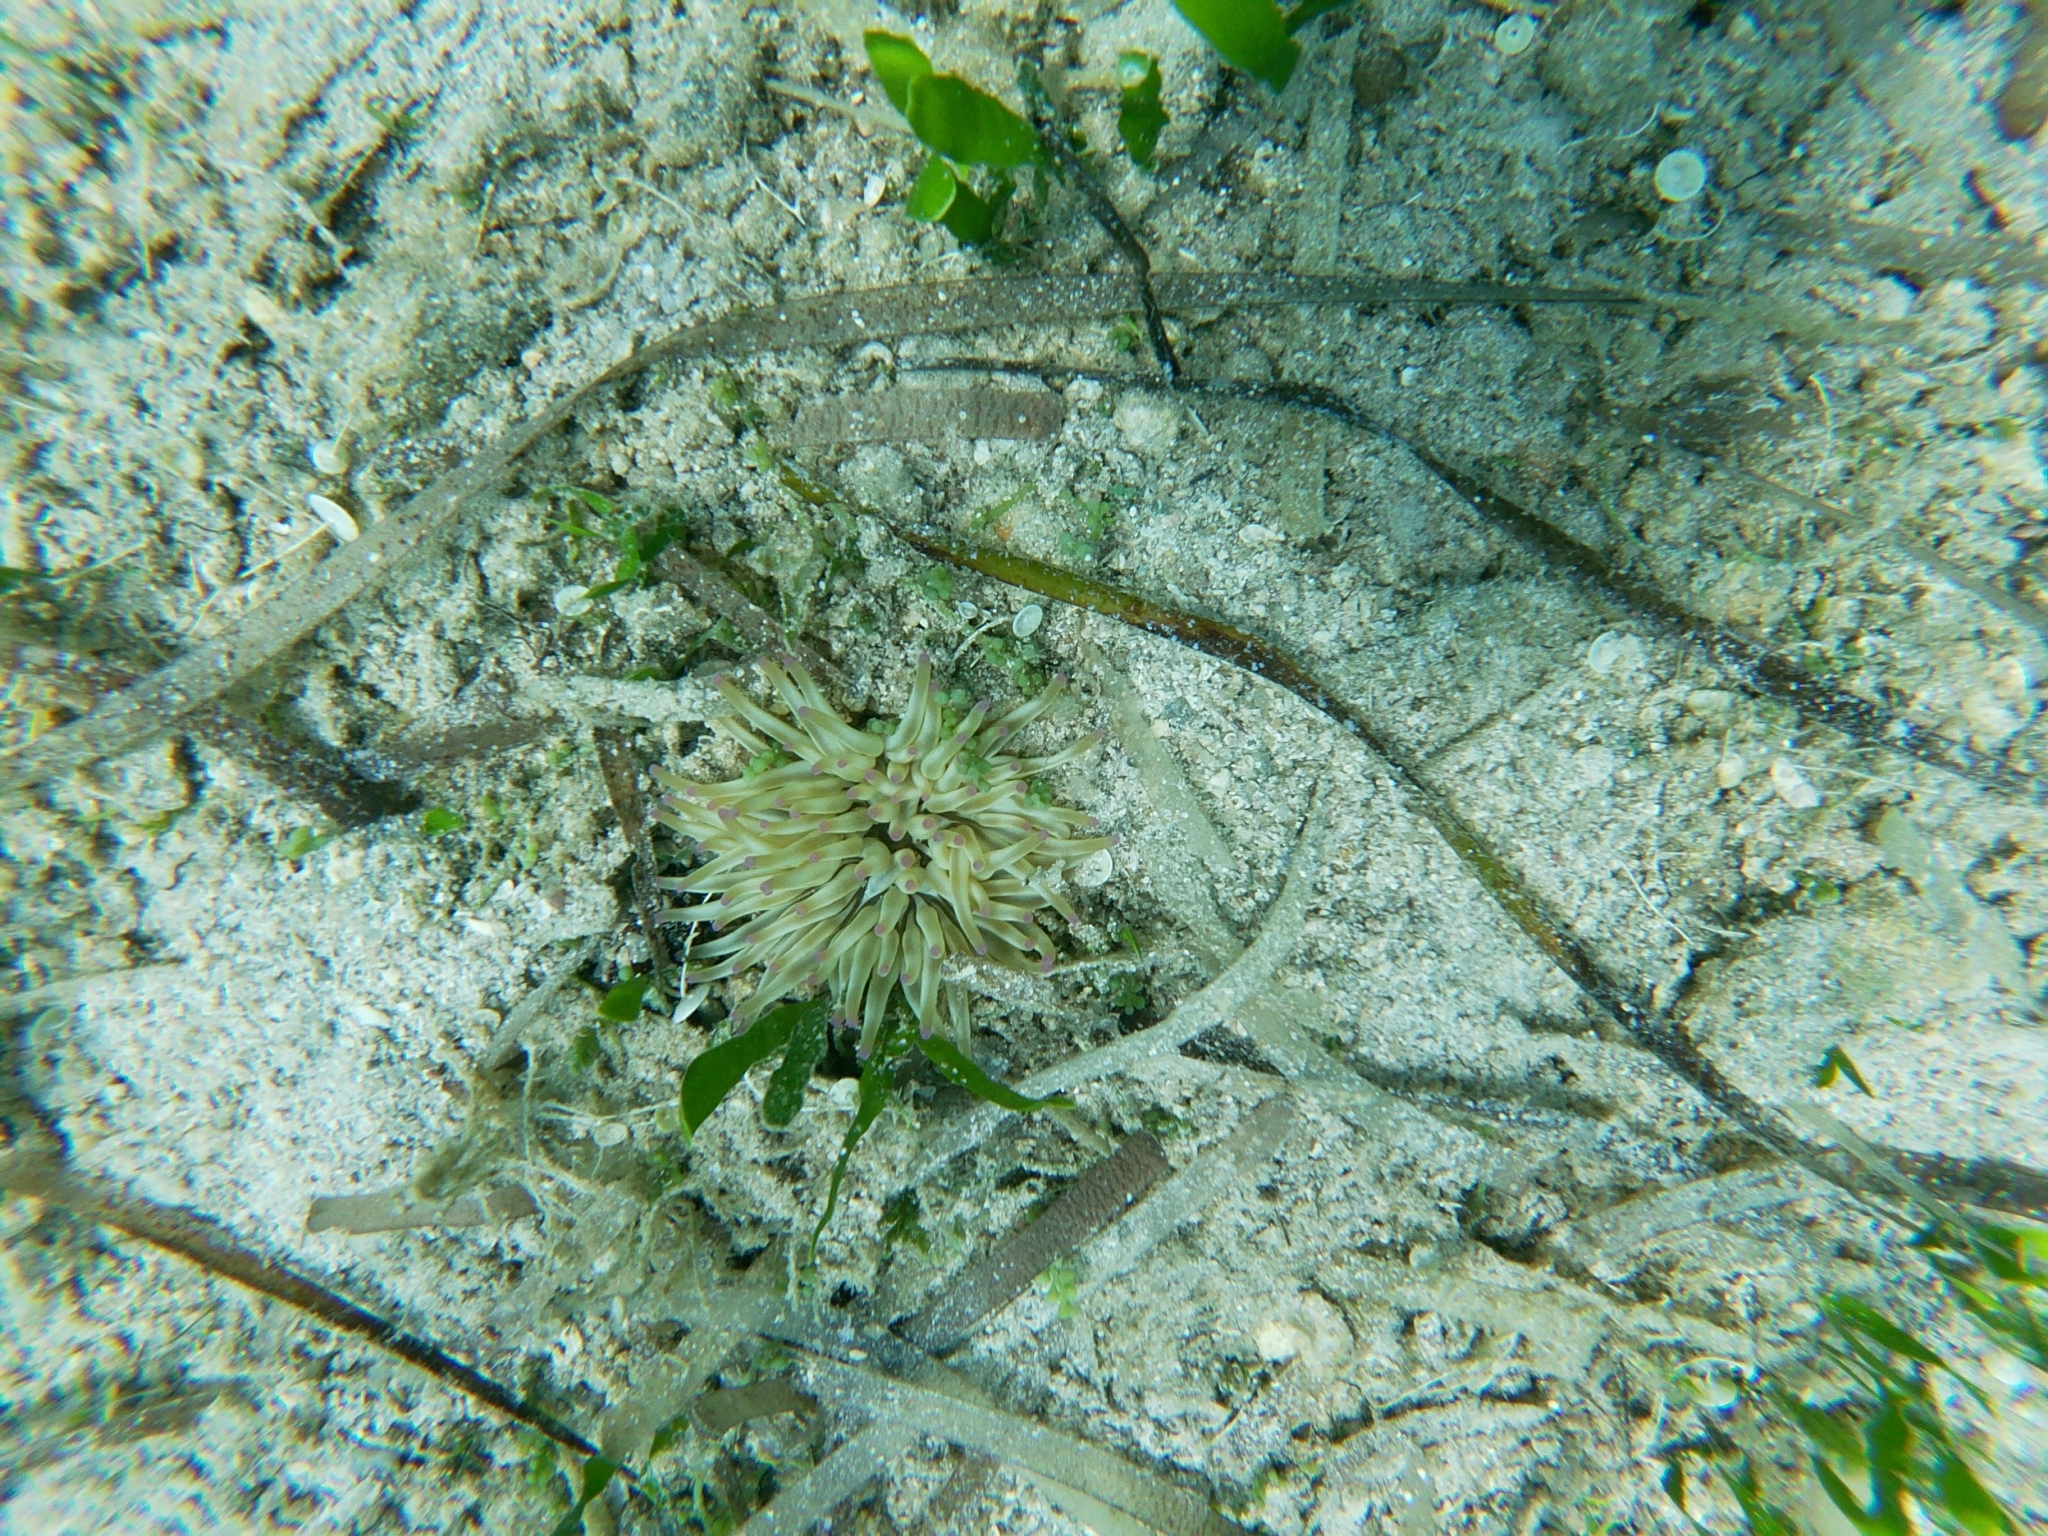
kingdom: Animalia
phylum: Cnidaria
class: Anthozoa
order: Actiniaria
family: Actiniidae
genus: Condylactis
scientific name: Condylactis aurantiaca
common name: Golden anemone
